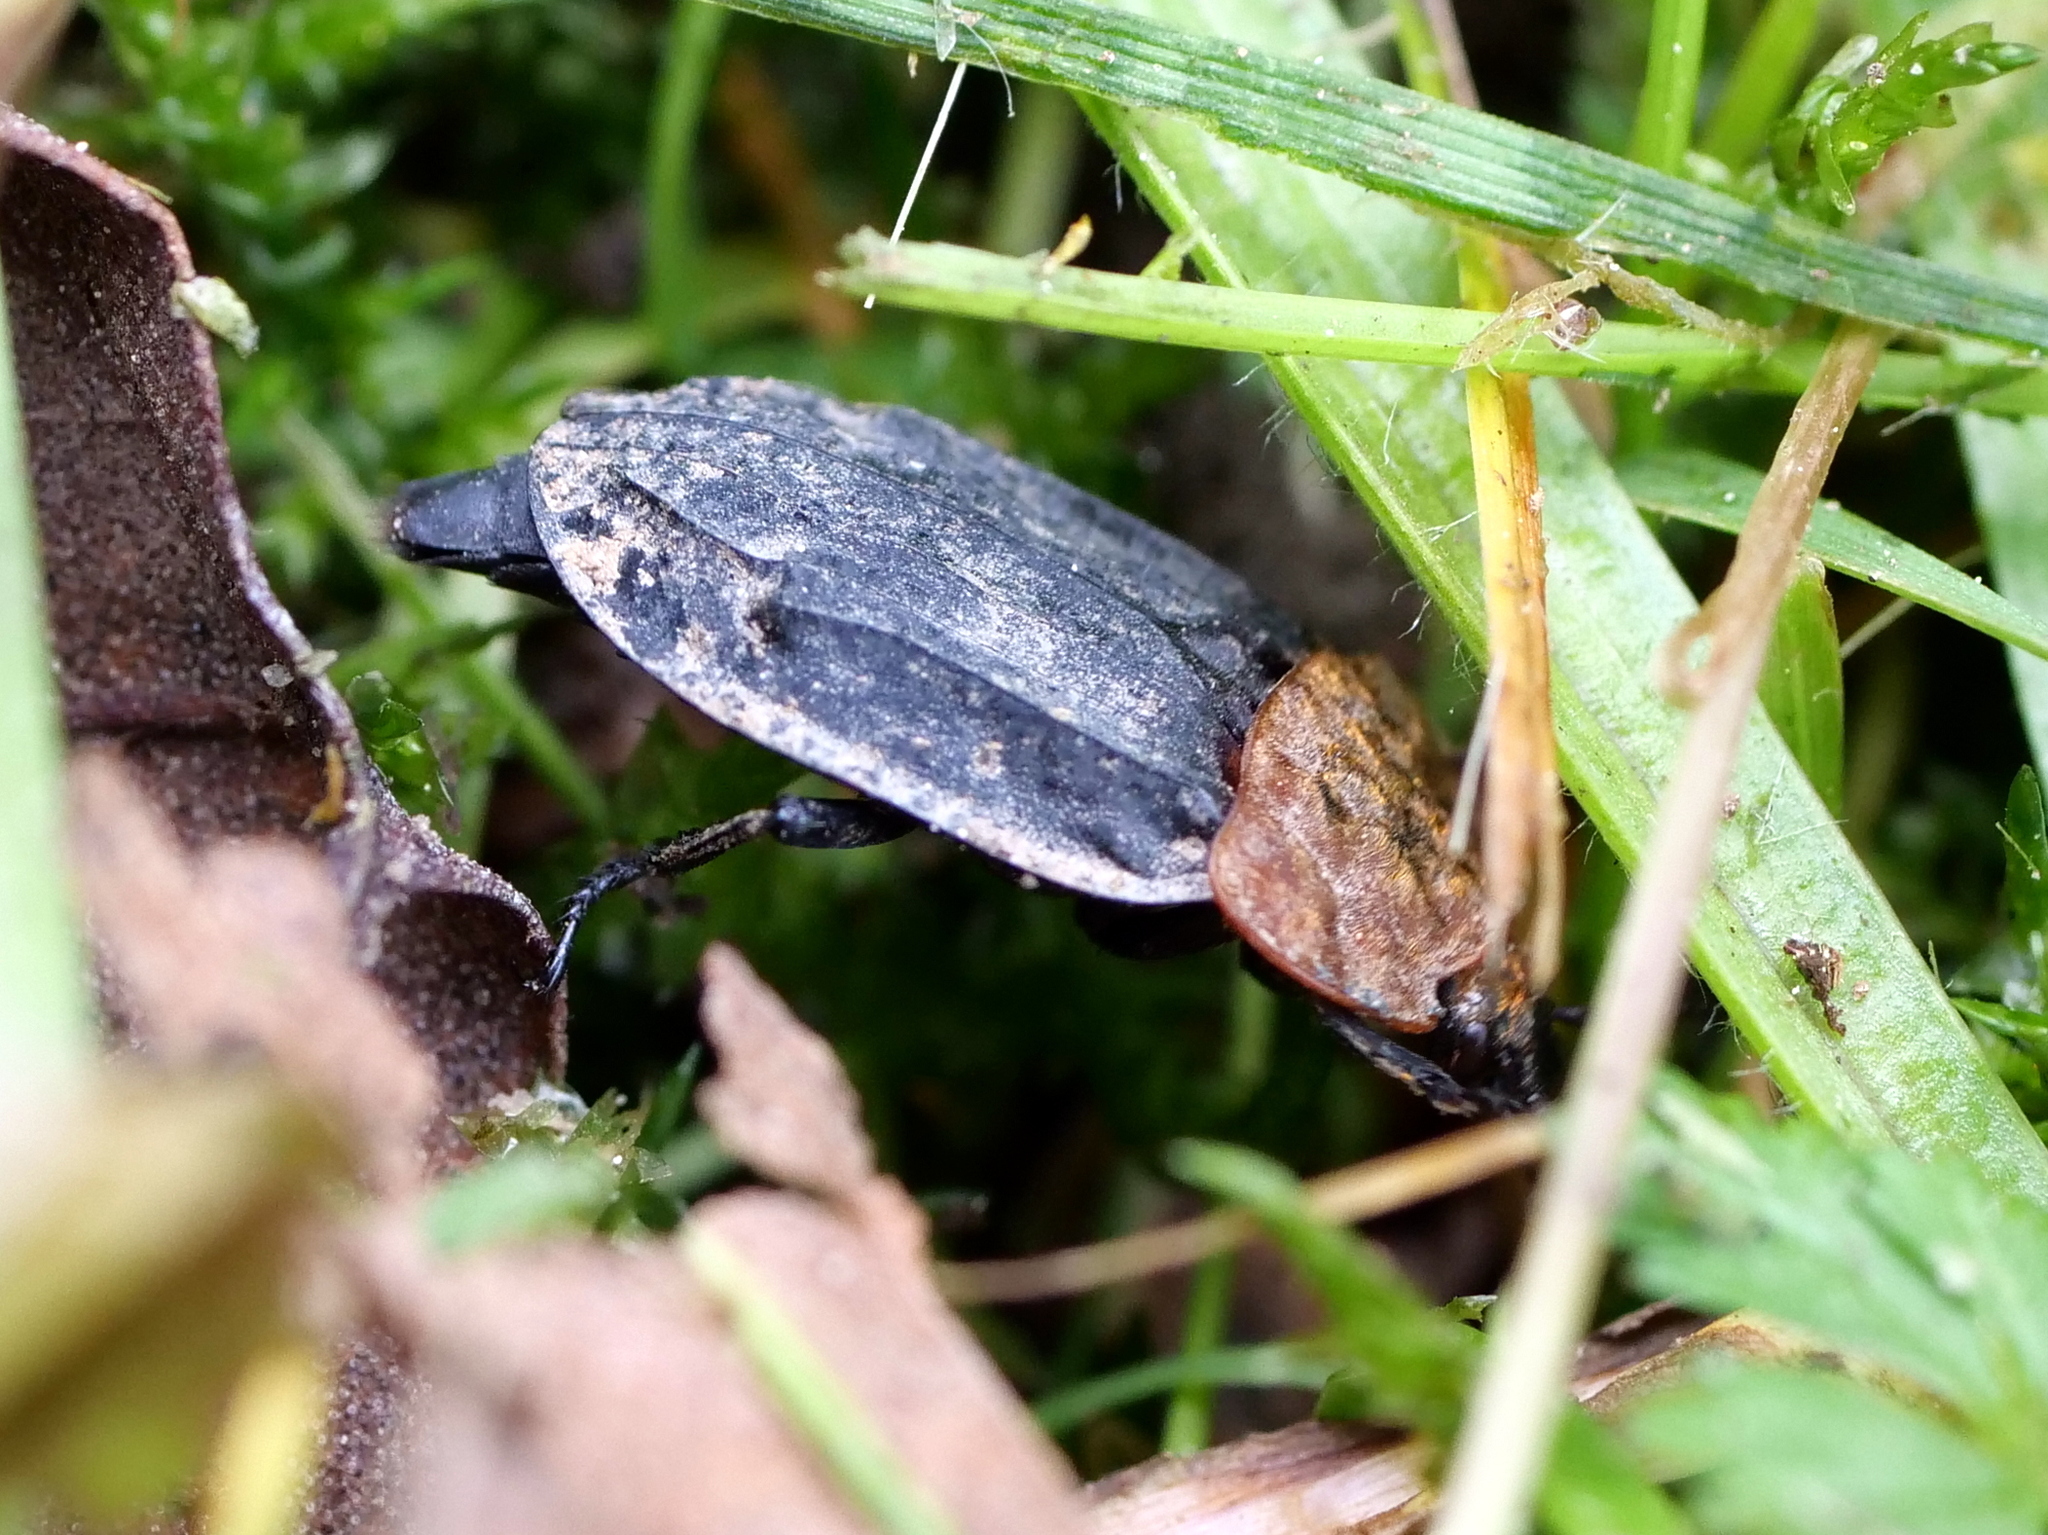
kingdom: Animalia
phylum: Arthropoda
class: Insecta
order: Coleoptera
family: Staphylinidae
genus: Oiceoptoma
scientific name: Oiceoptoma thoracicum
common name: Red-breasted carrion beetle
